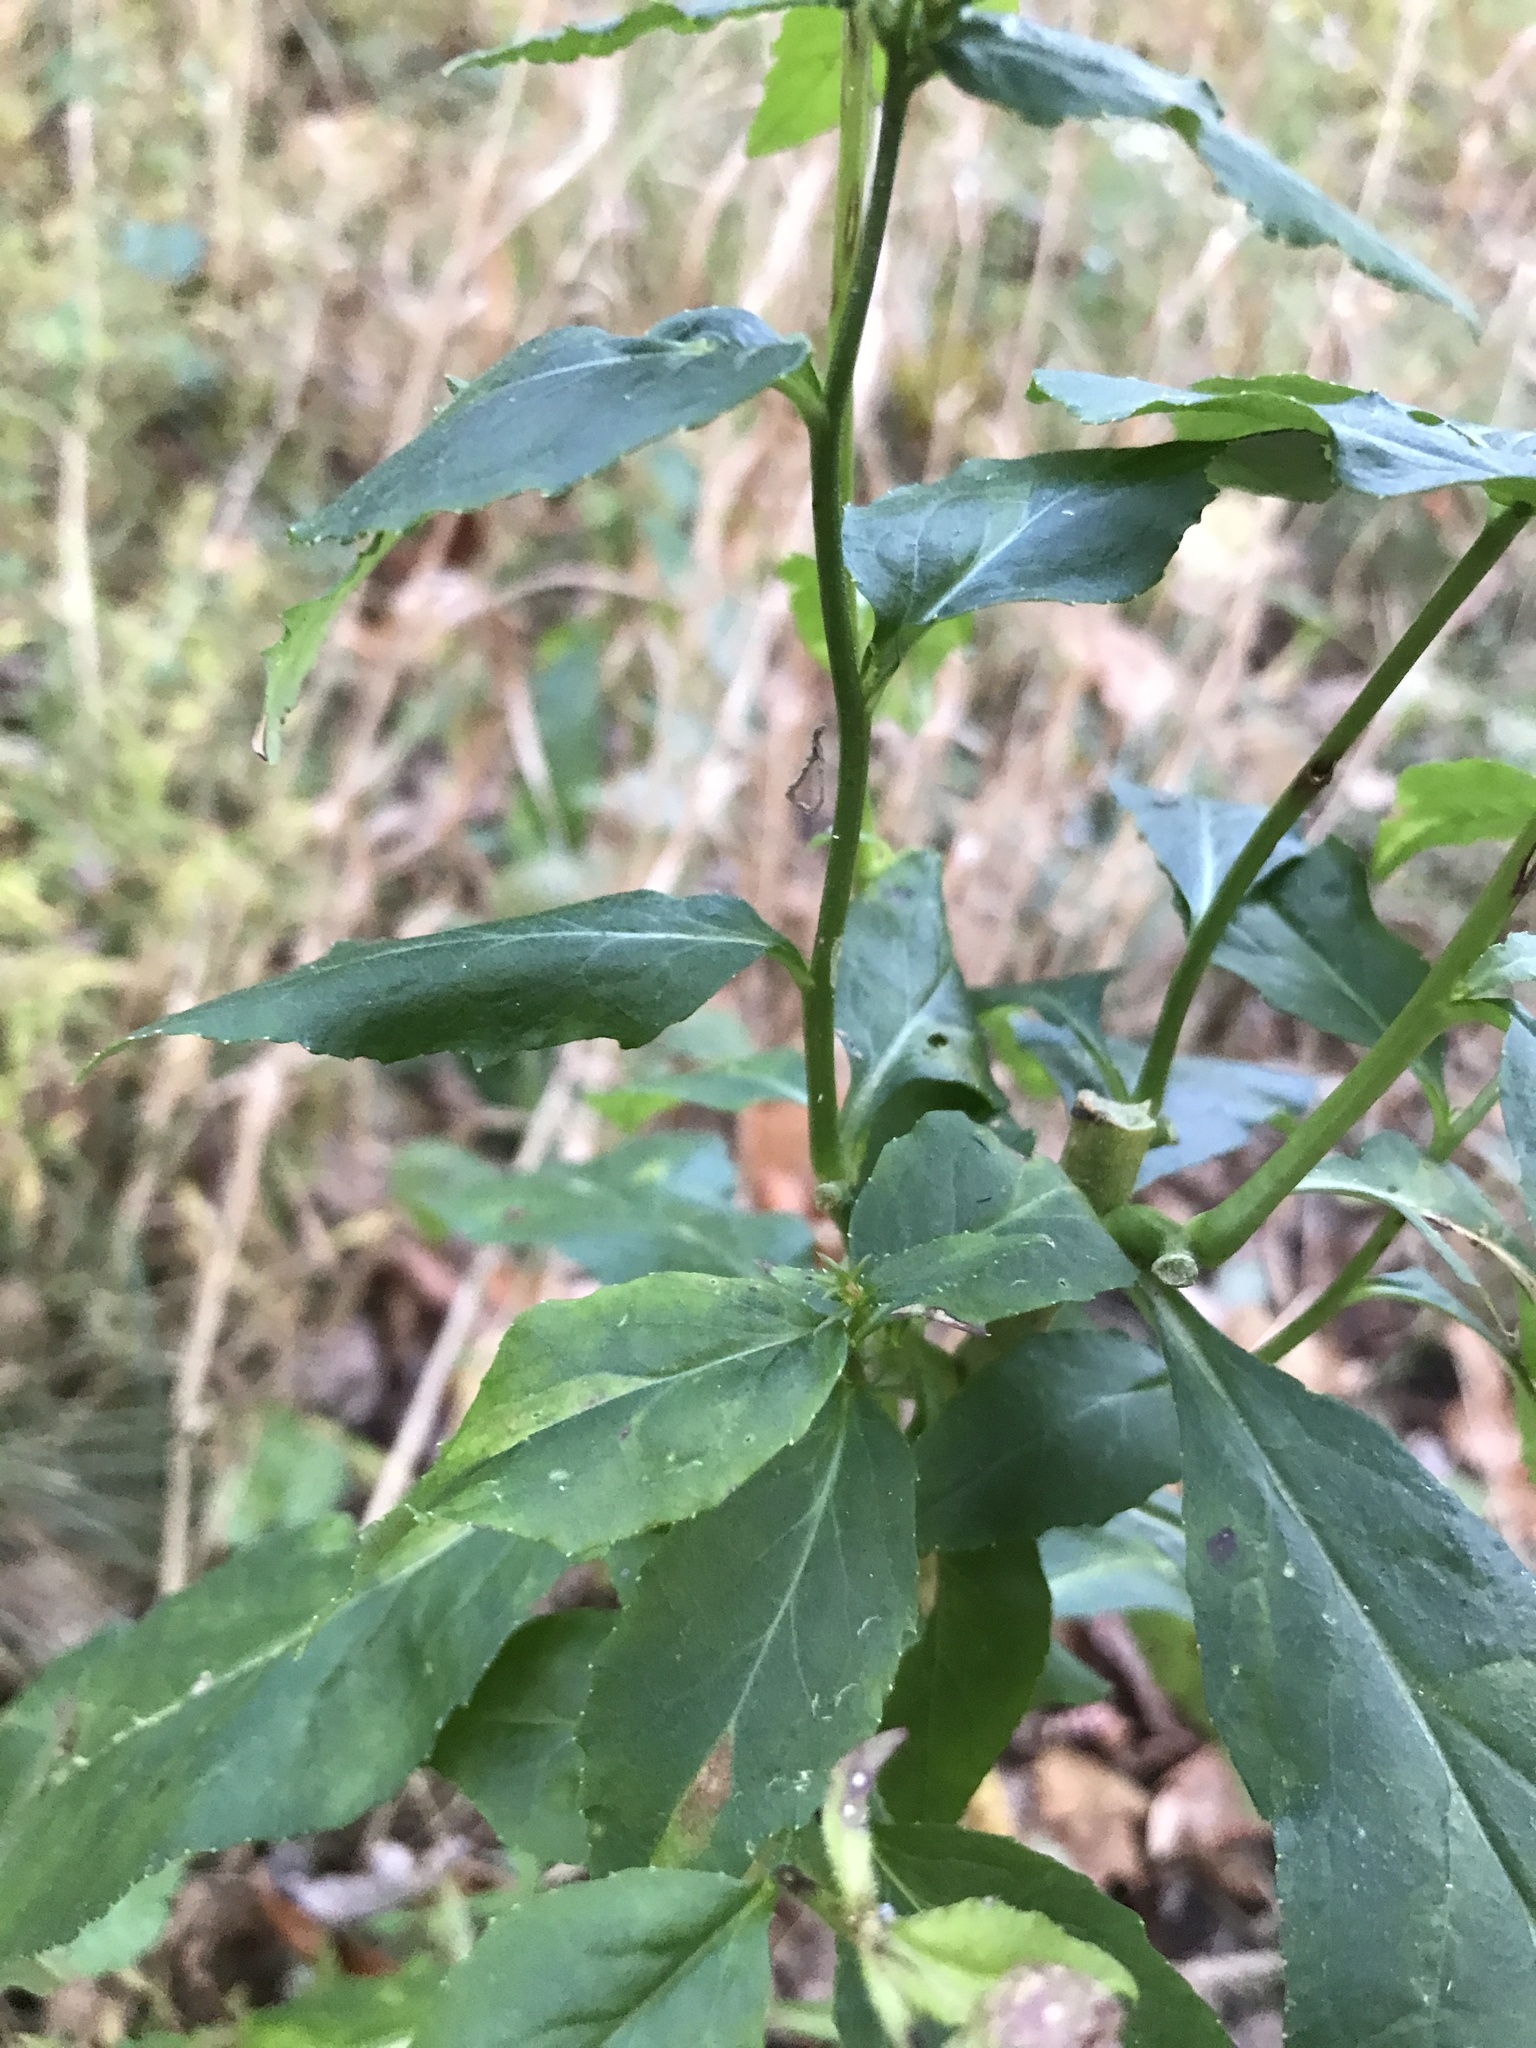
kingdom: Plantae
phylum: Tracheophyta
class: Magnoliopsida
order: Asterales
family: Campanulaceae
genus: Lobelia
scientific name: Lobelia inflata
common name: Indian tobacco
